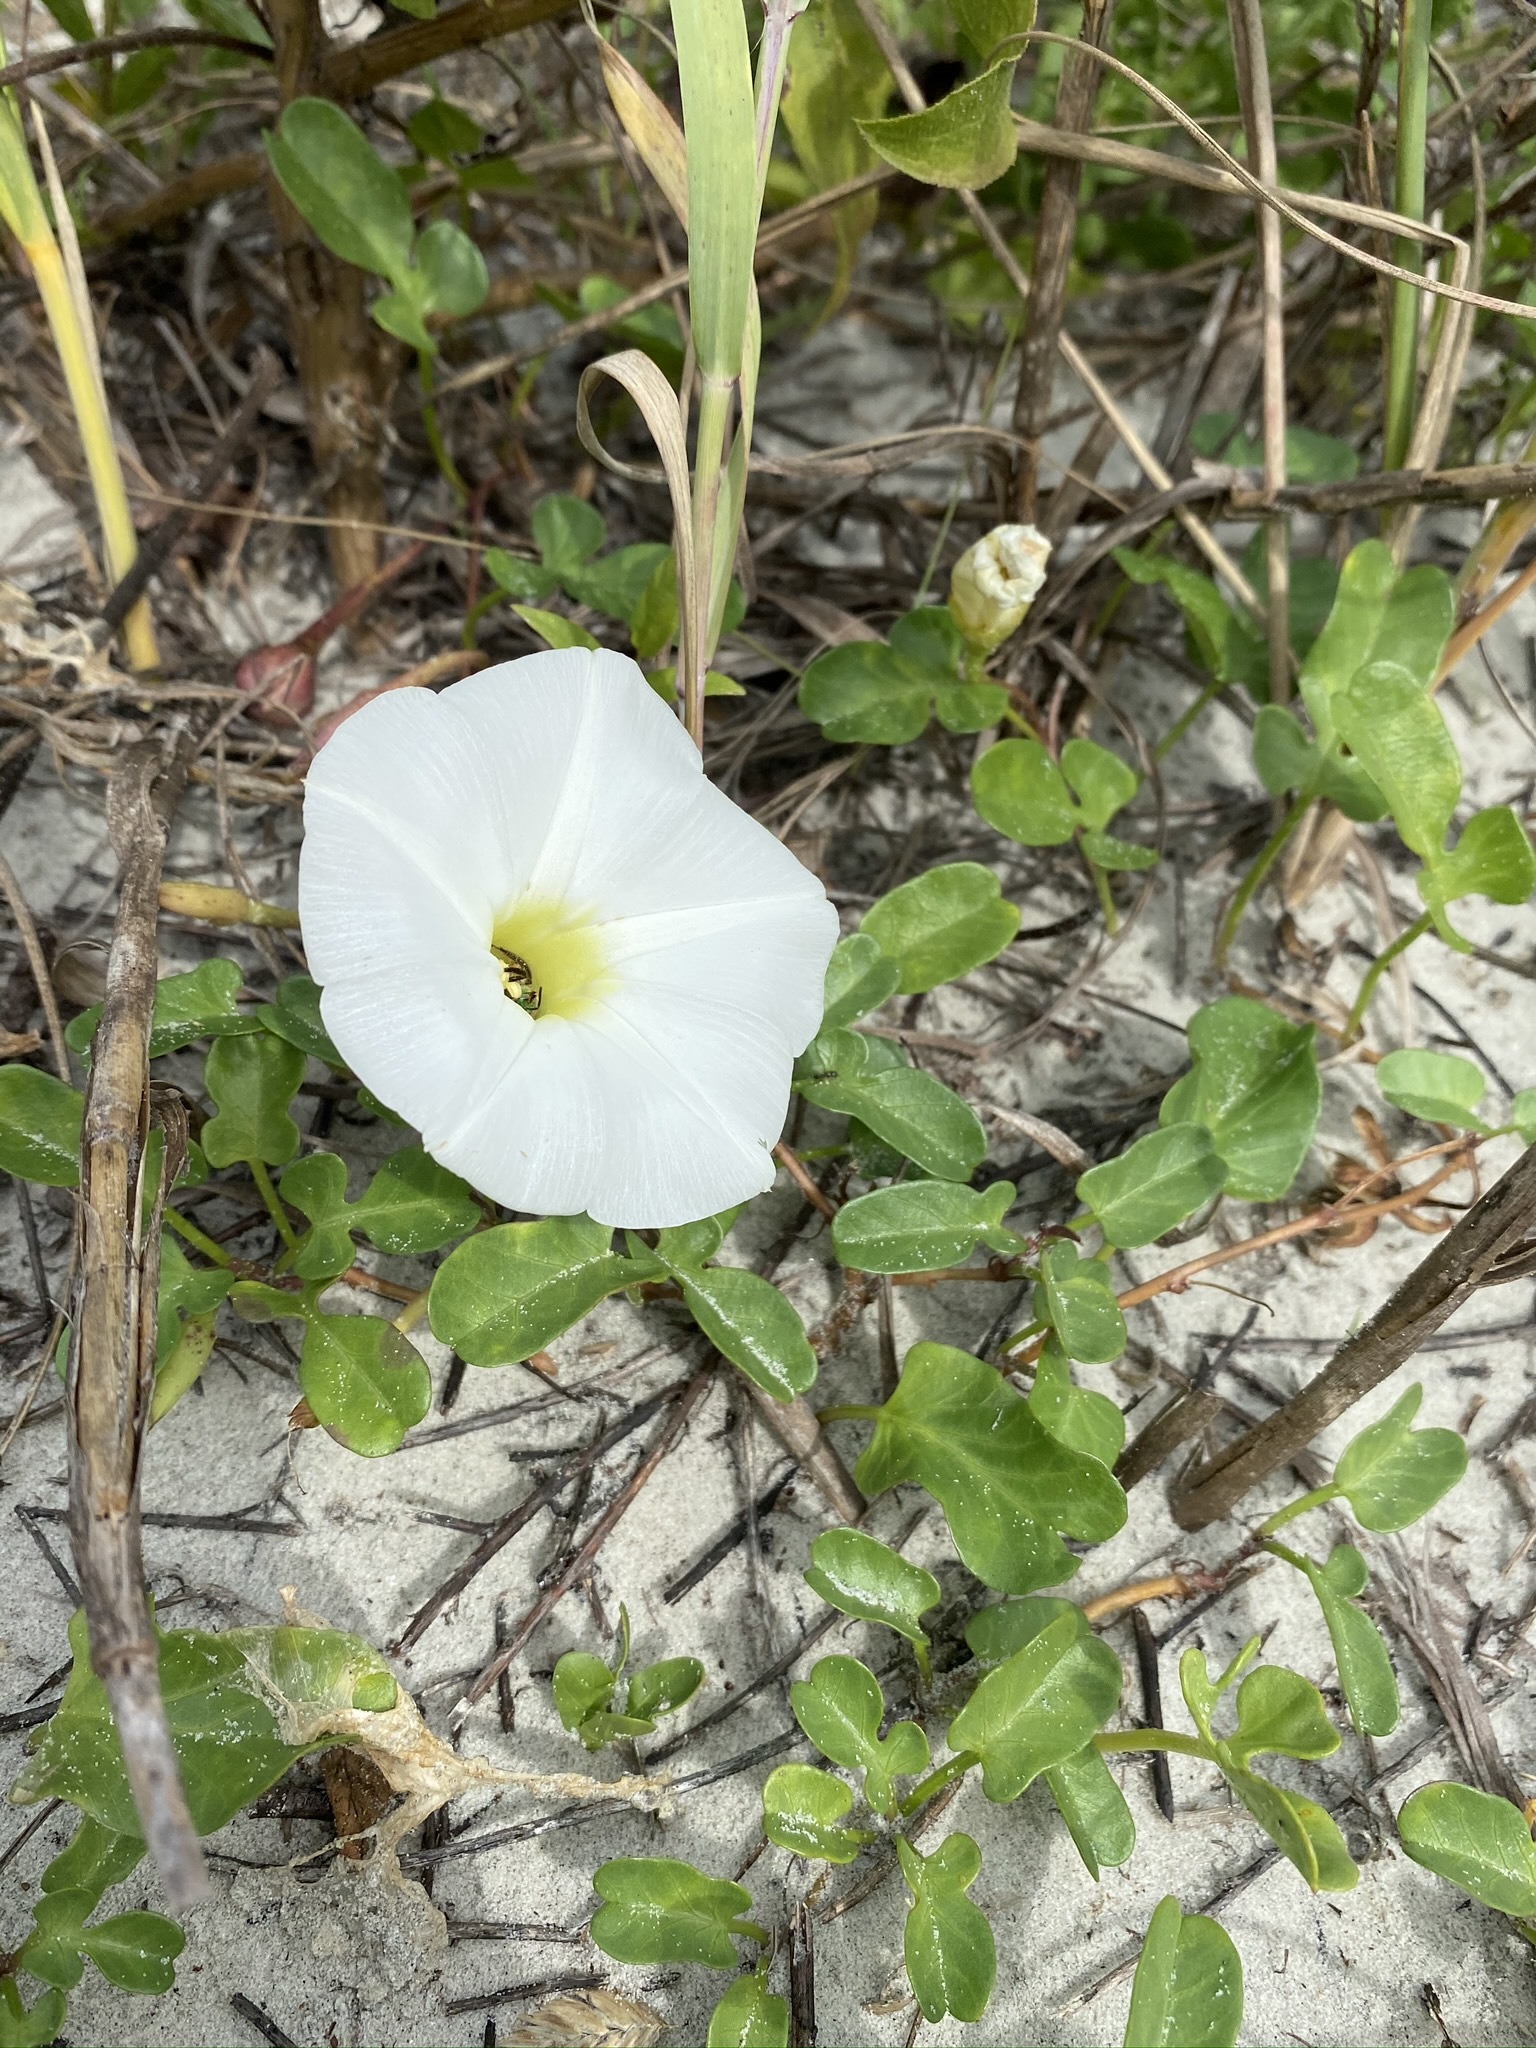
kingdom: Plantae
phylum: Tracheophyta
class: Magnoliopsida
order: Solanales
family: Convolvulaceae
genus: Ipomoea
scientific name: Ipomoea imperati
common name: Fiddle-leaf morning-glory
